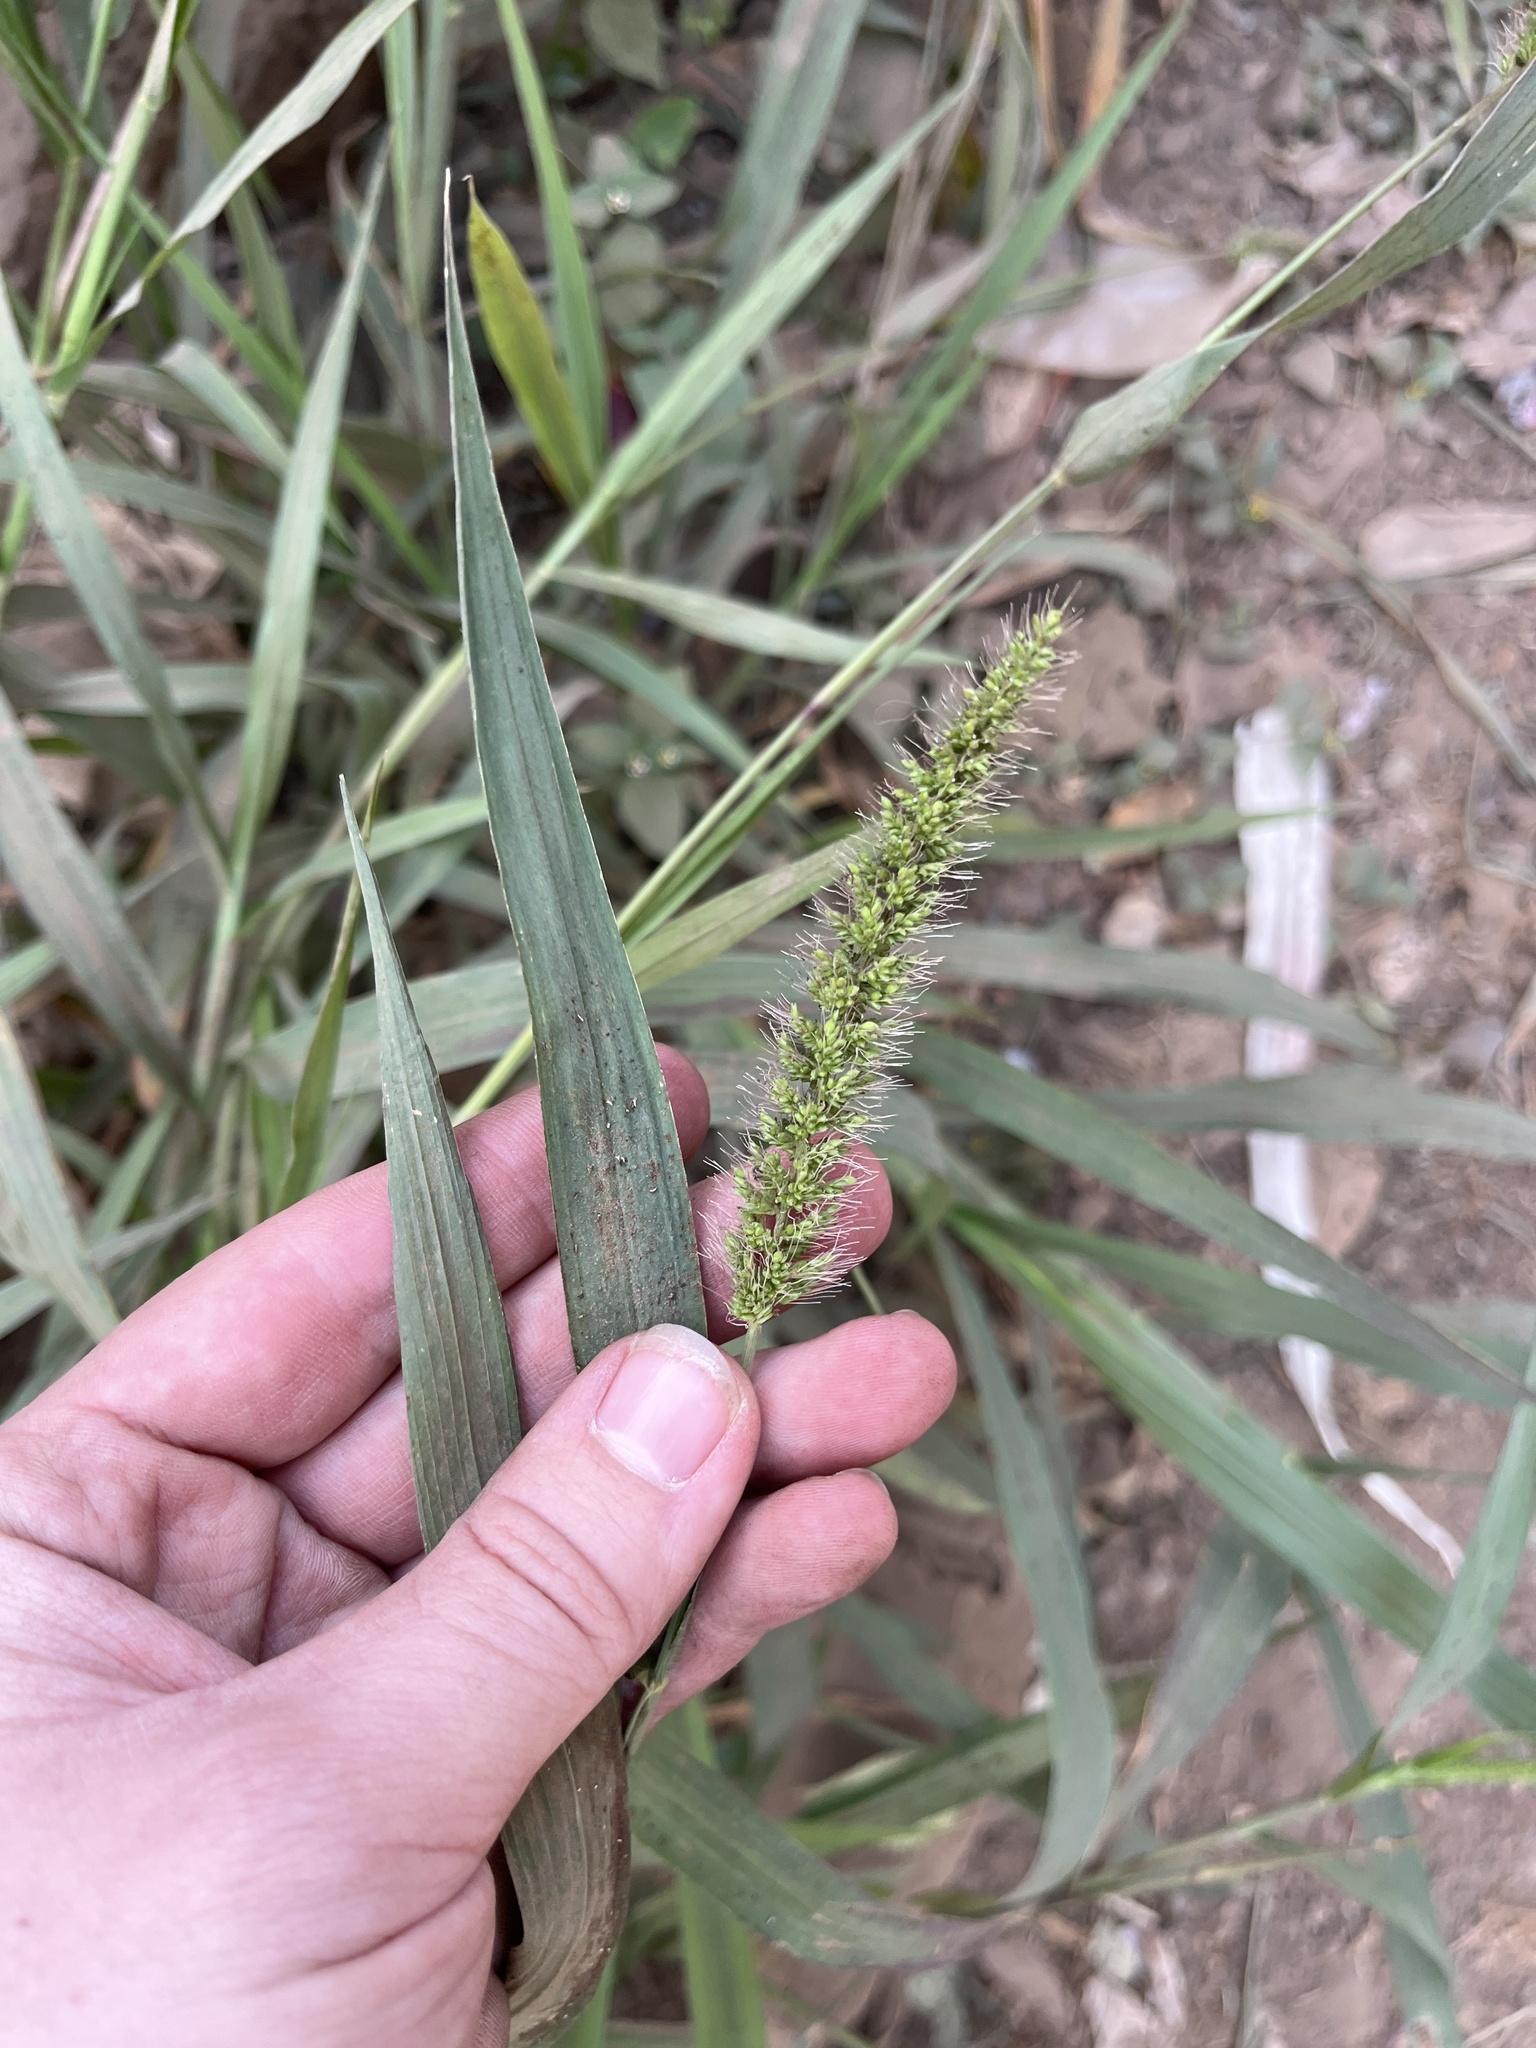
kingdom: Plantae
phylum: Tracheophyta
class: Liliopsida
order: Poales
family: Poaceae
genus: Setaria
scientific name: Setaria pumila
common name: Yellow bristle-grass
